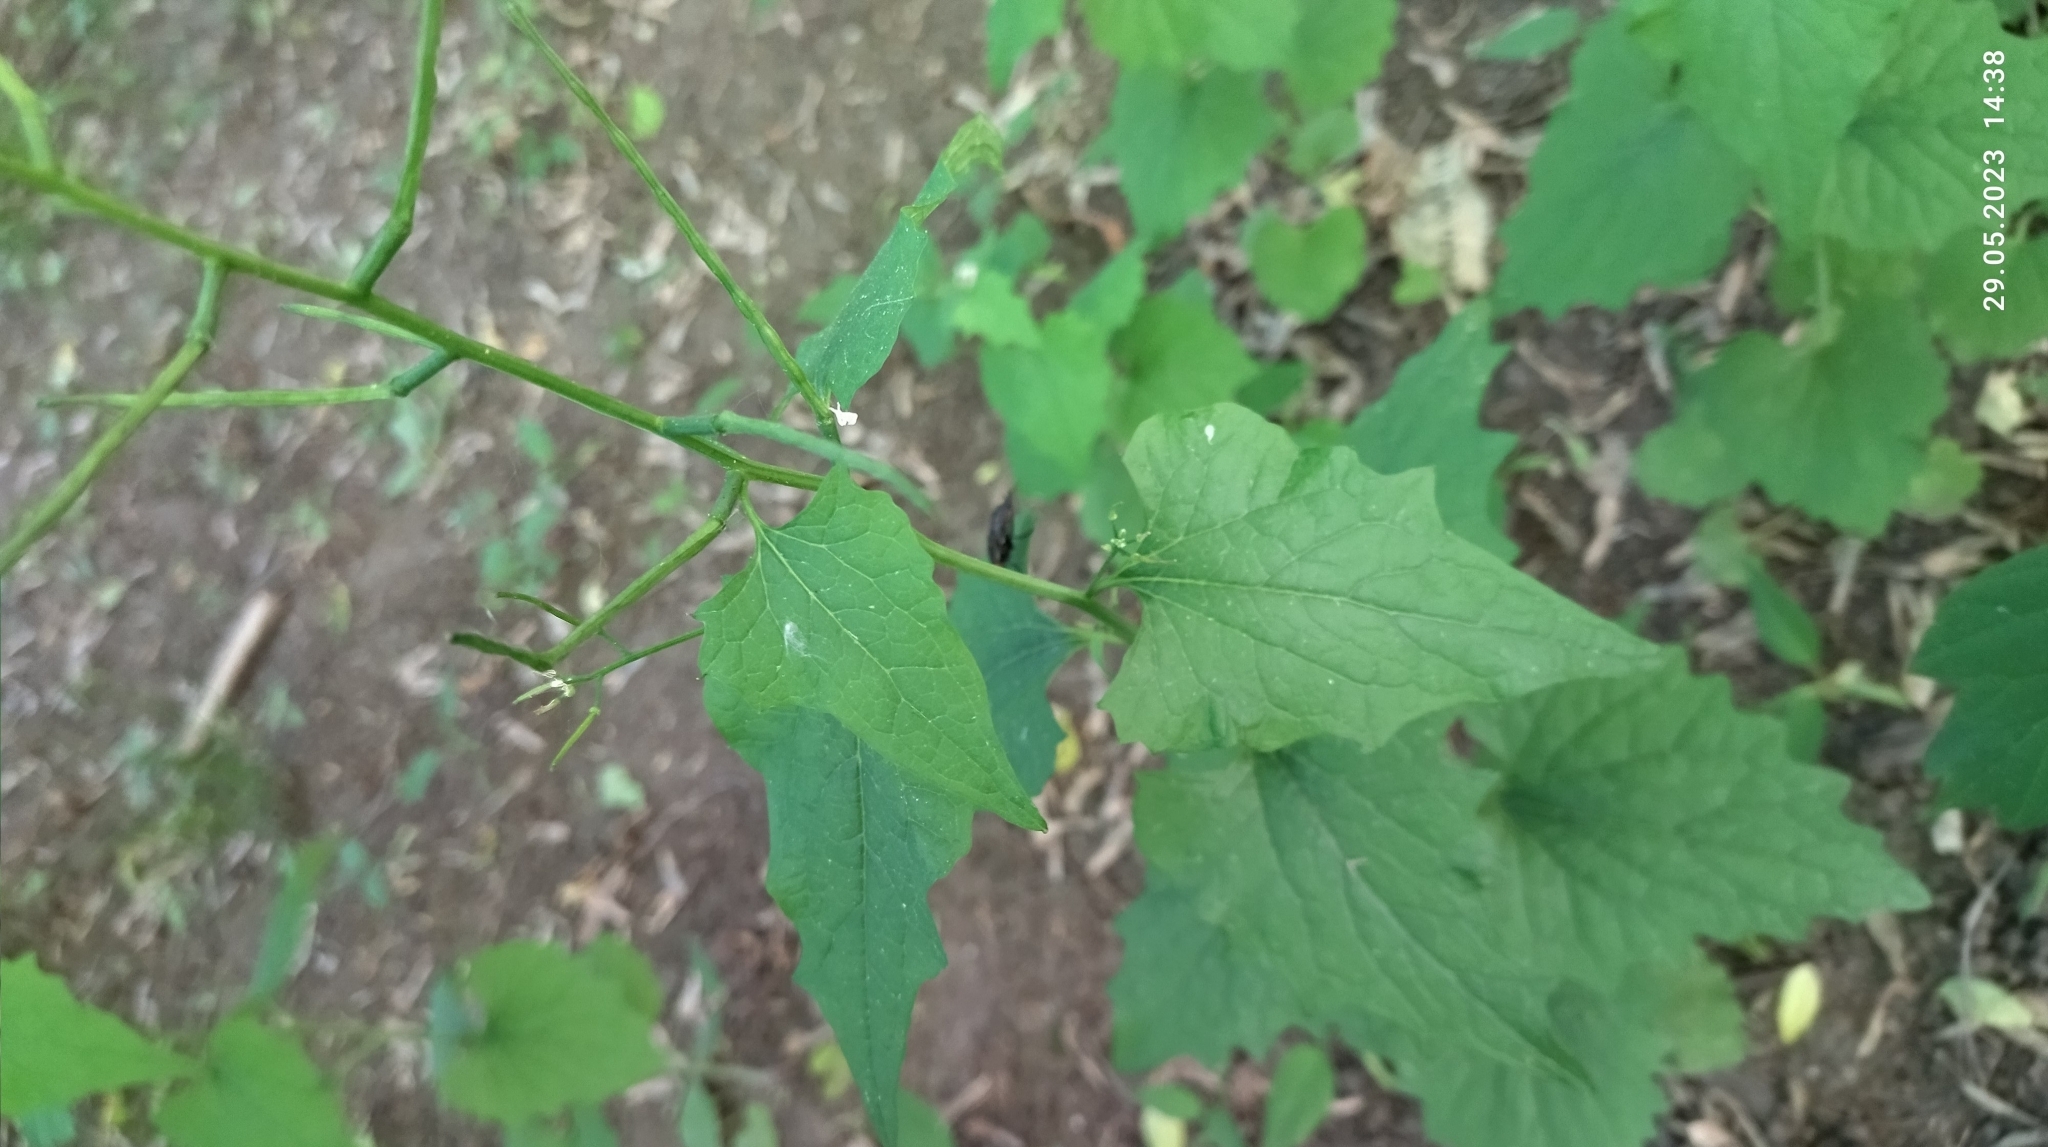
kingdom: Plantae
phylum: Tracheophyta
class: Magnoliopsida
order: Brassicales
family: Brassicaceae
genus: Alliaria
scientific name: Alliaria petiolata
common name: Garlic mustard
